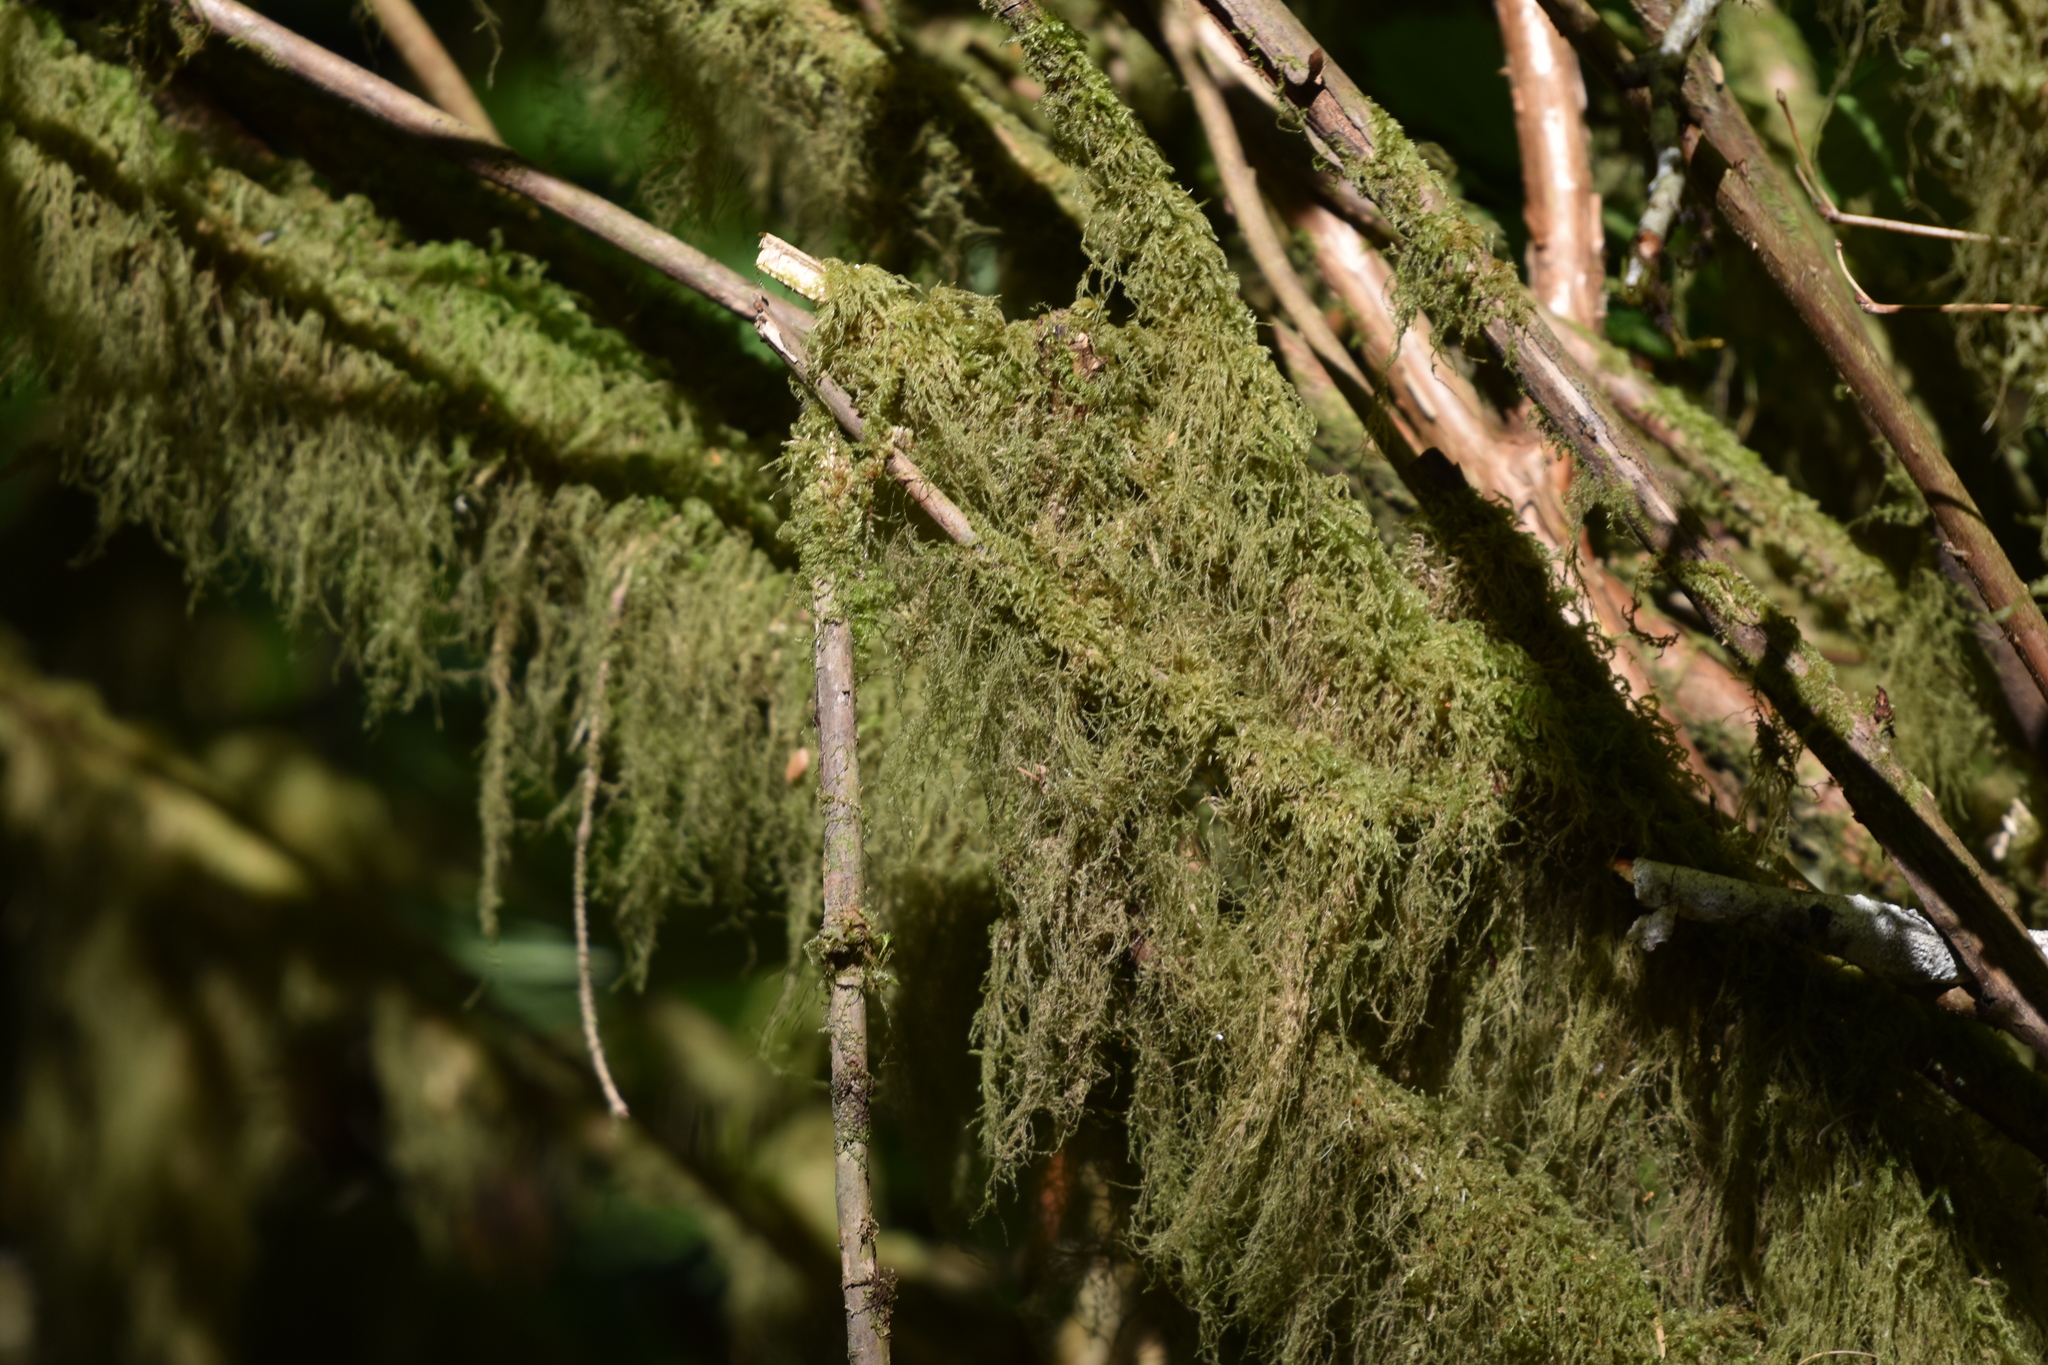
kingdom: Plantae
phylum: Bryophyta
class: Bryopsida
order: Hypnales
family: Lembophyllaceae
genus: Pseudisothecium
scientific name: Pseudisothecium stoloniferum
